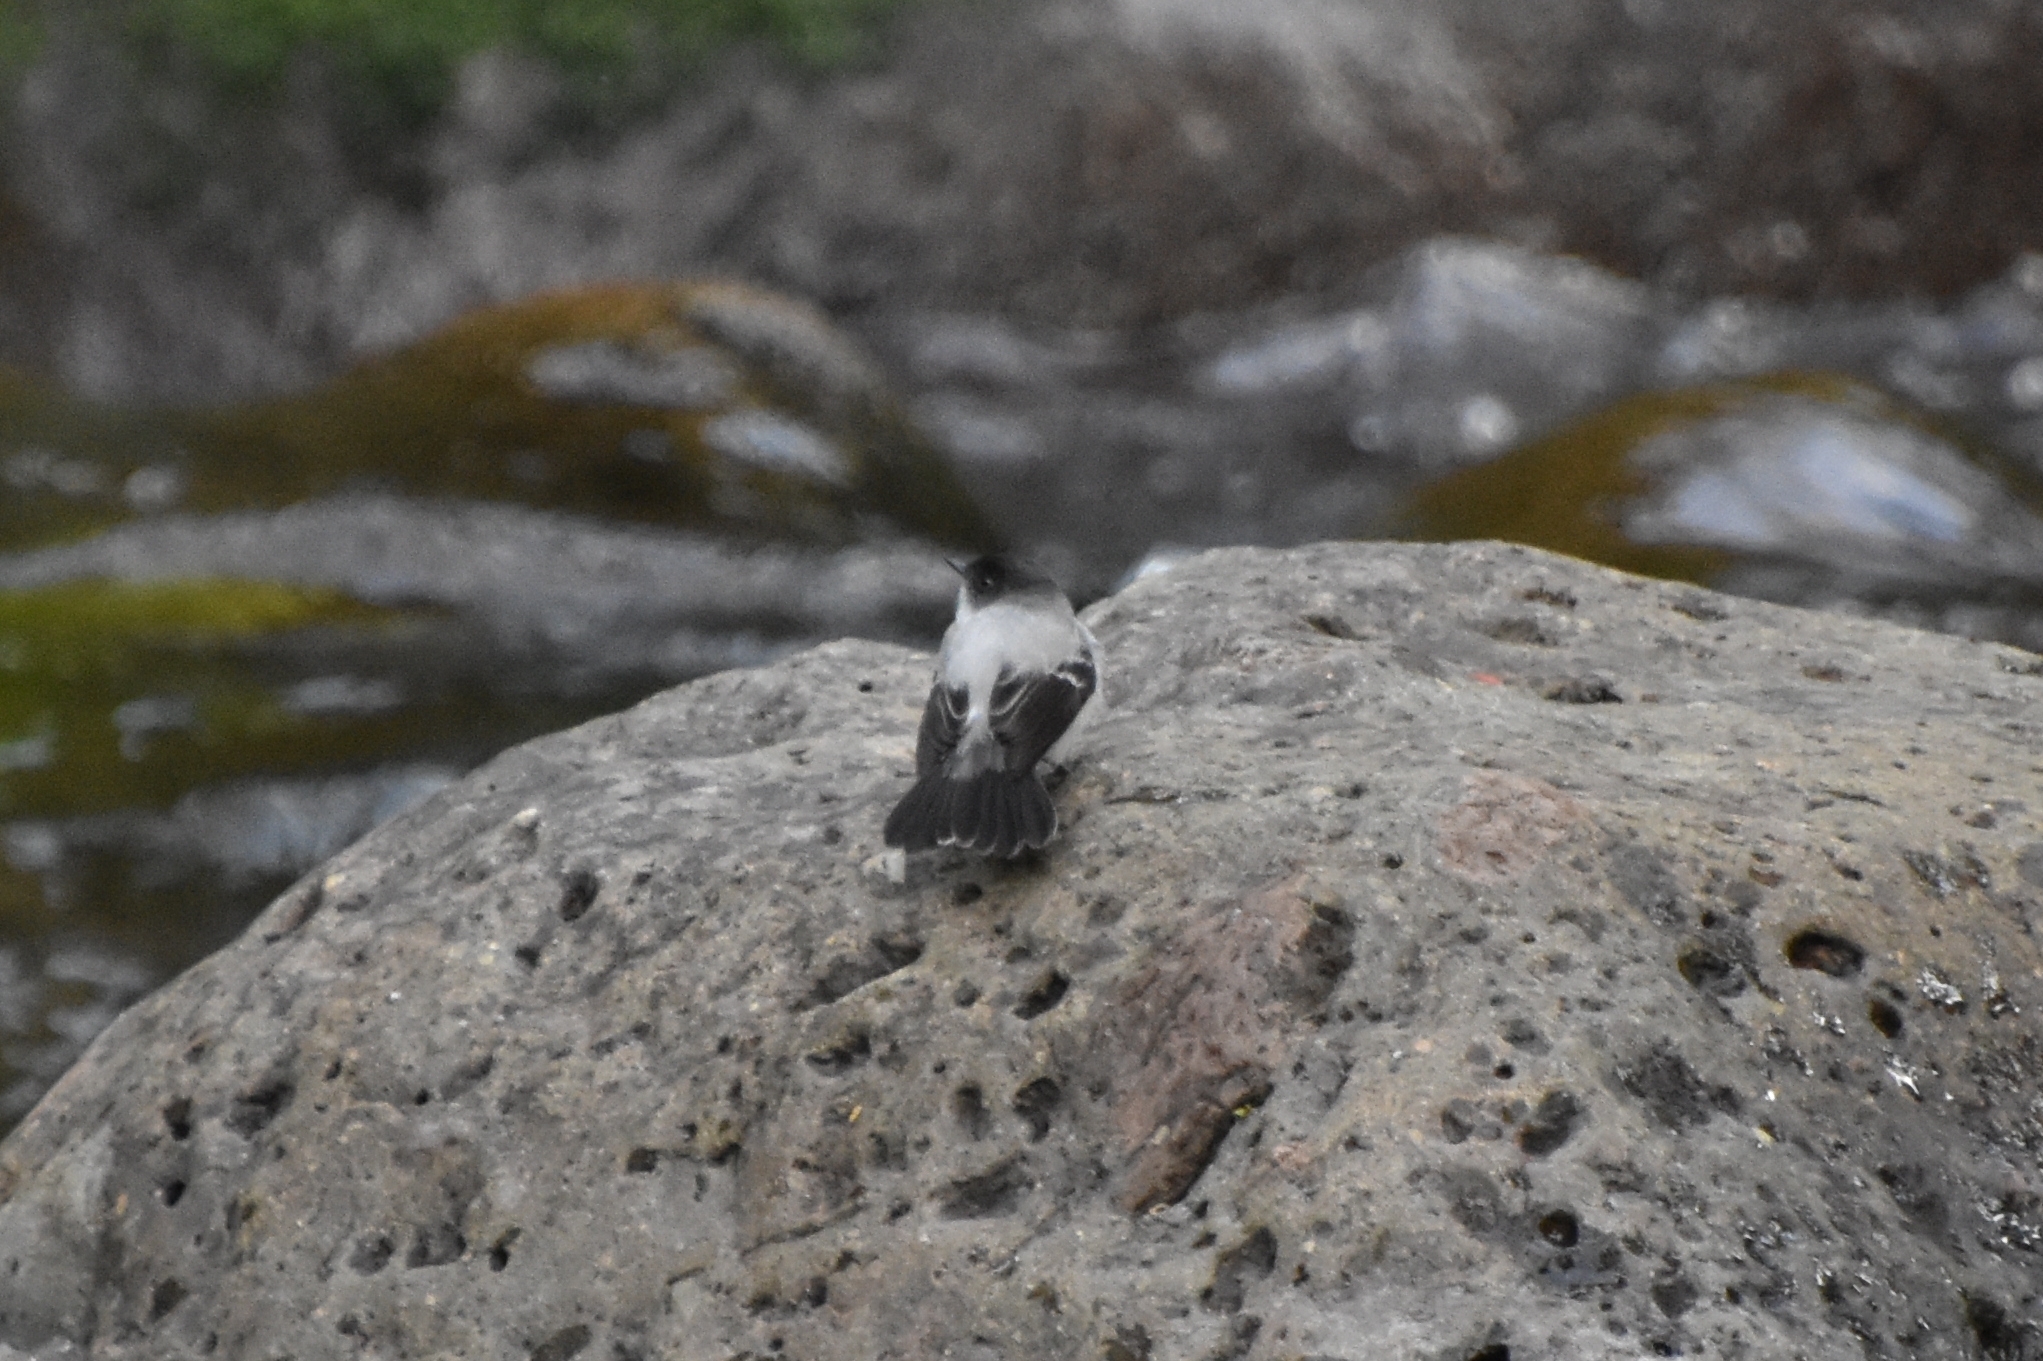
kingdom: Animalia
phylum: Chordata
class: Aves
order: Passeriformes
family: Tyrannidae
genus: Serpophaga
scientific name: Serpophaga cinerea
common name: Torrent tyrannulet
